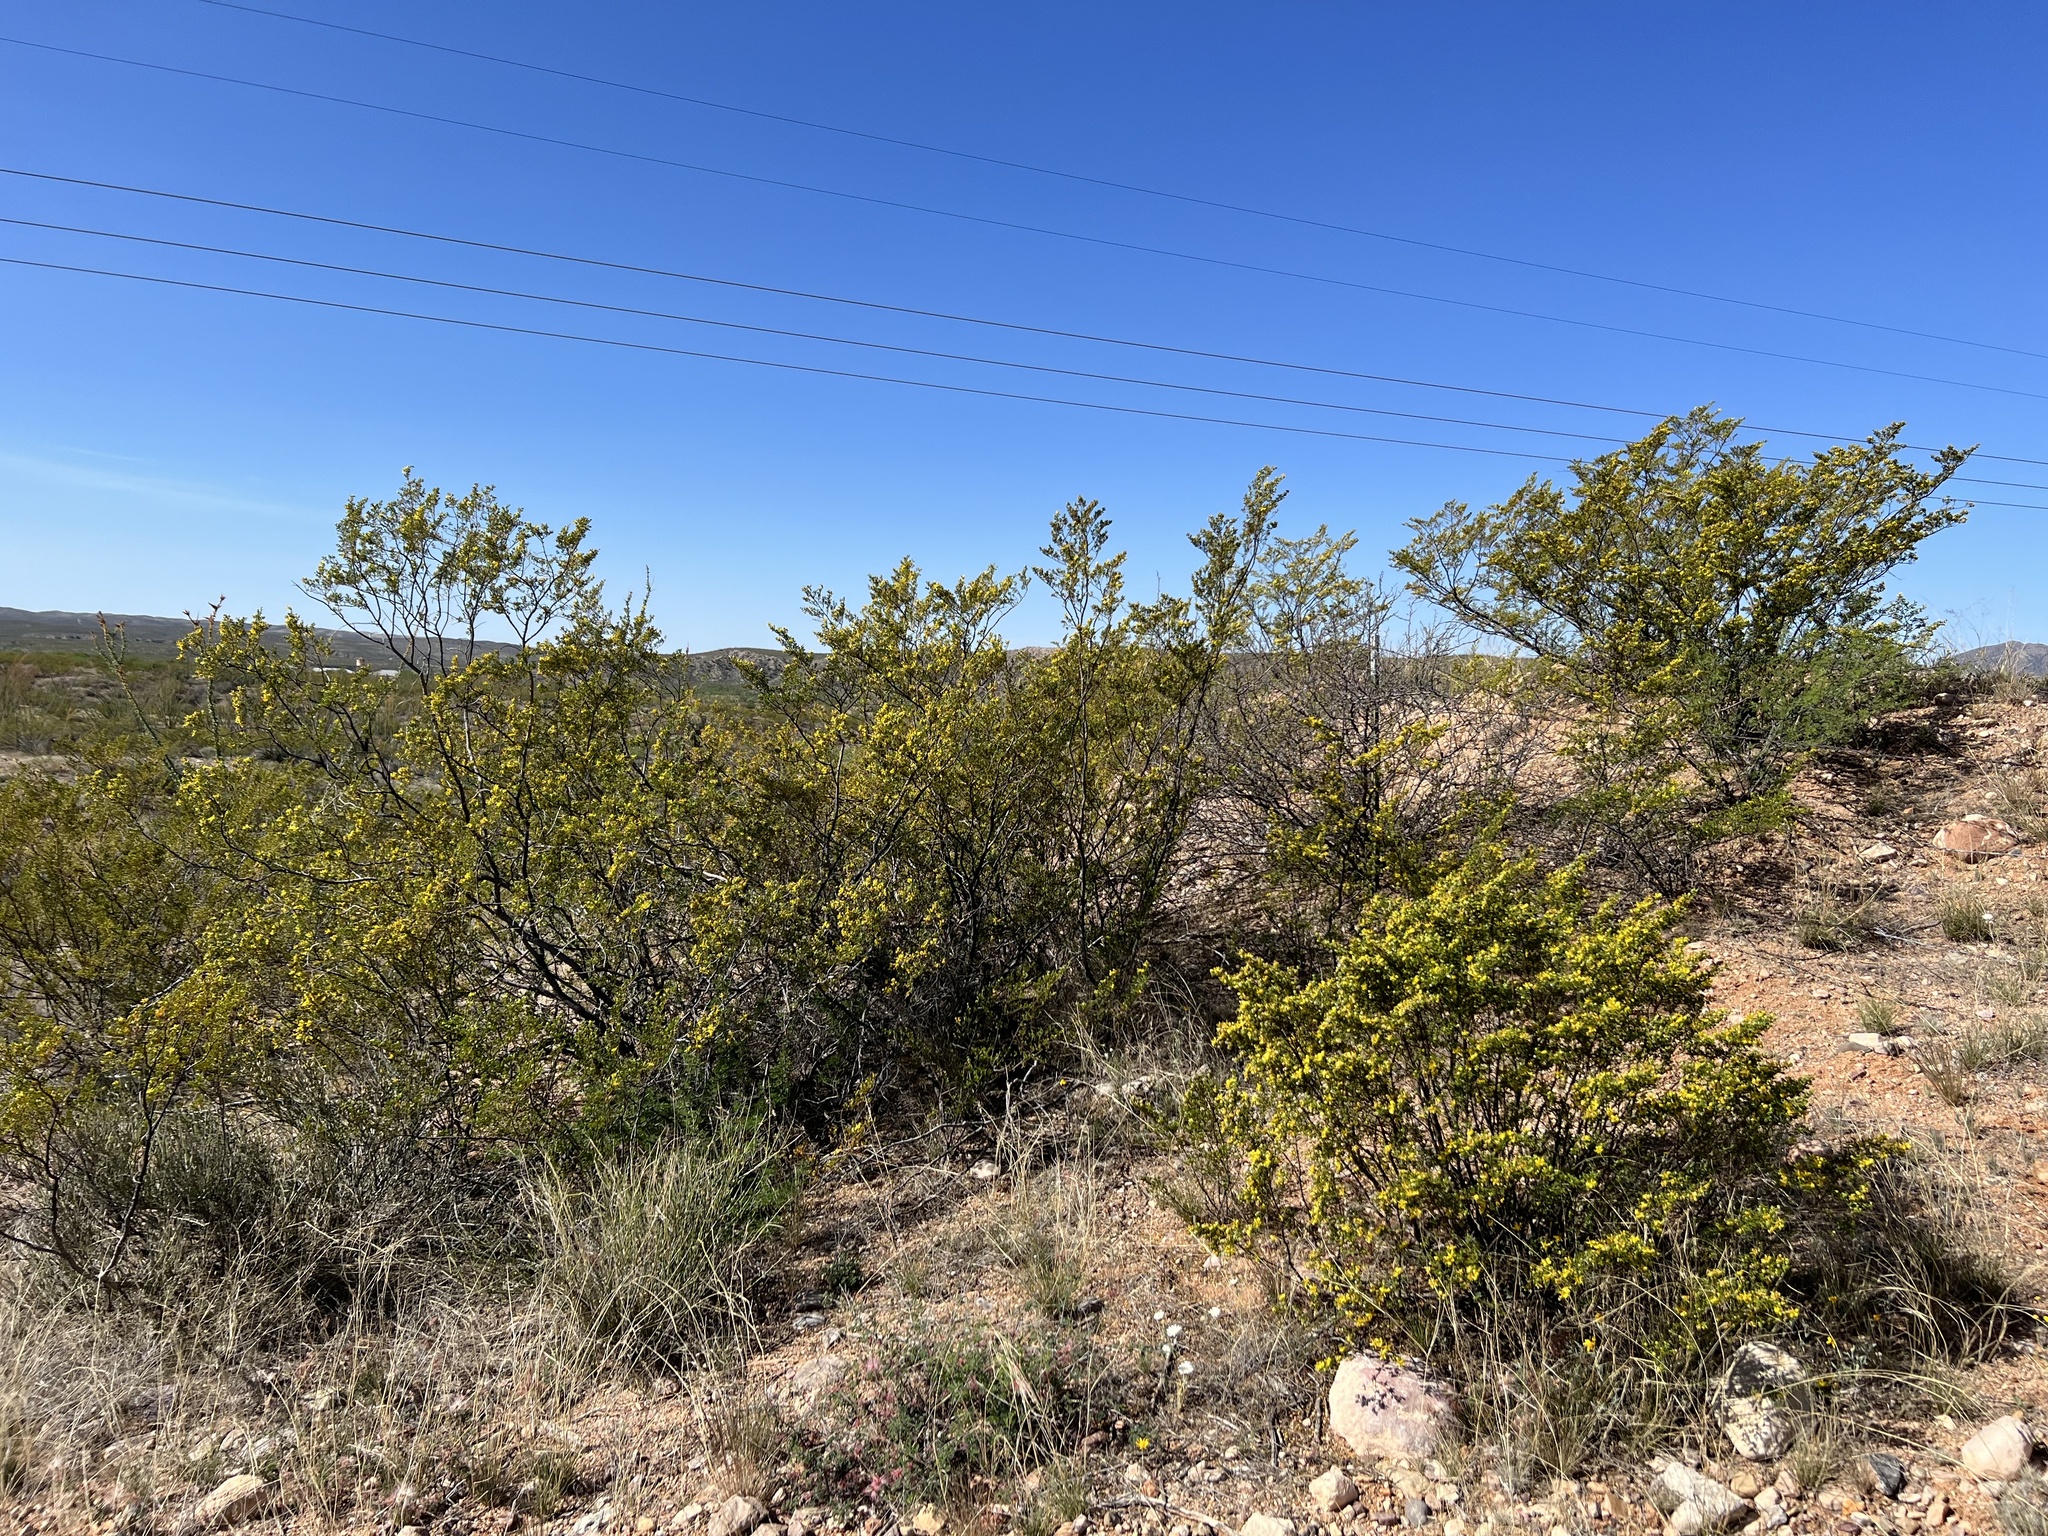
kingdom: Plantae
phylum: Tracheophyta
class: Magnoliopsida
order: Zygophyllales
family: Zygophyllaceae
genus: Larrea
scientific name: Larrea tridentata
